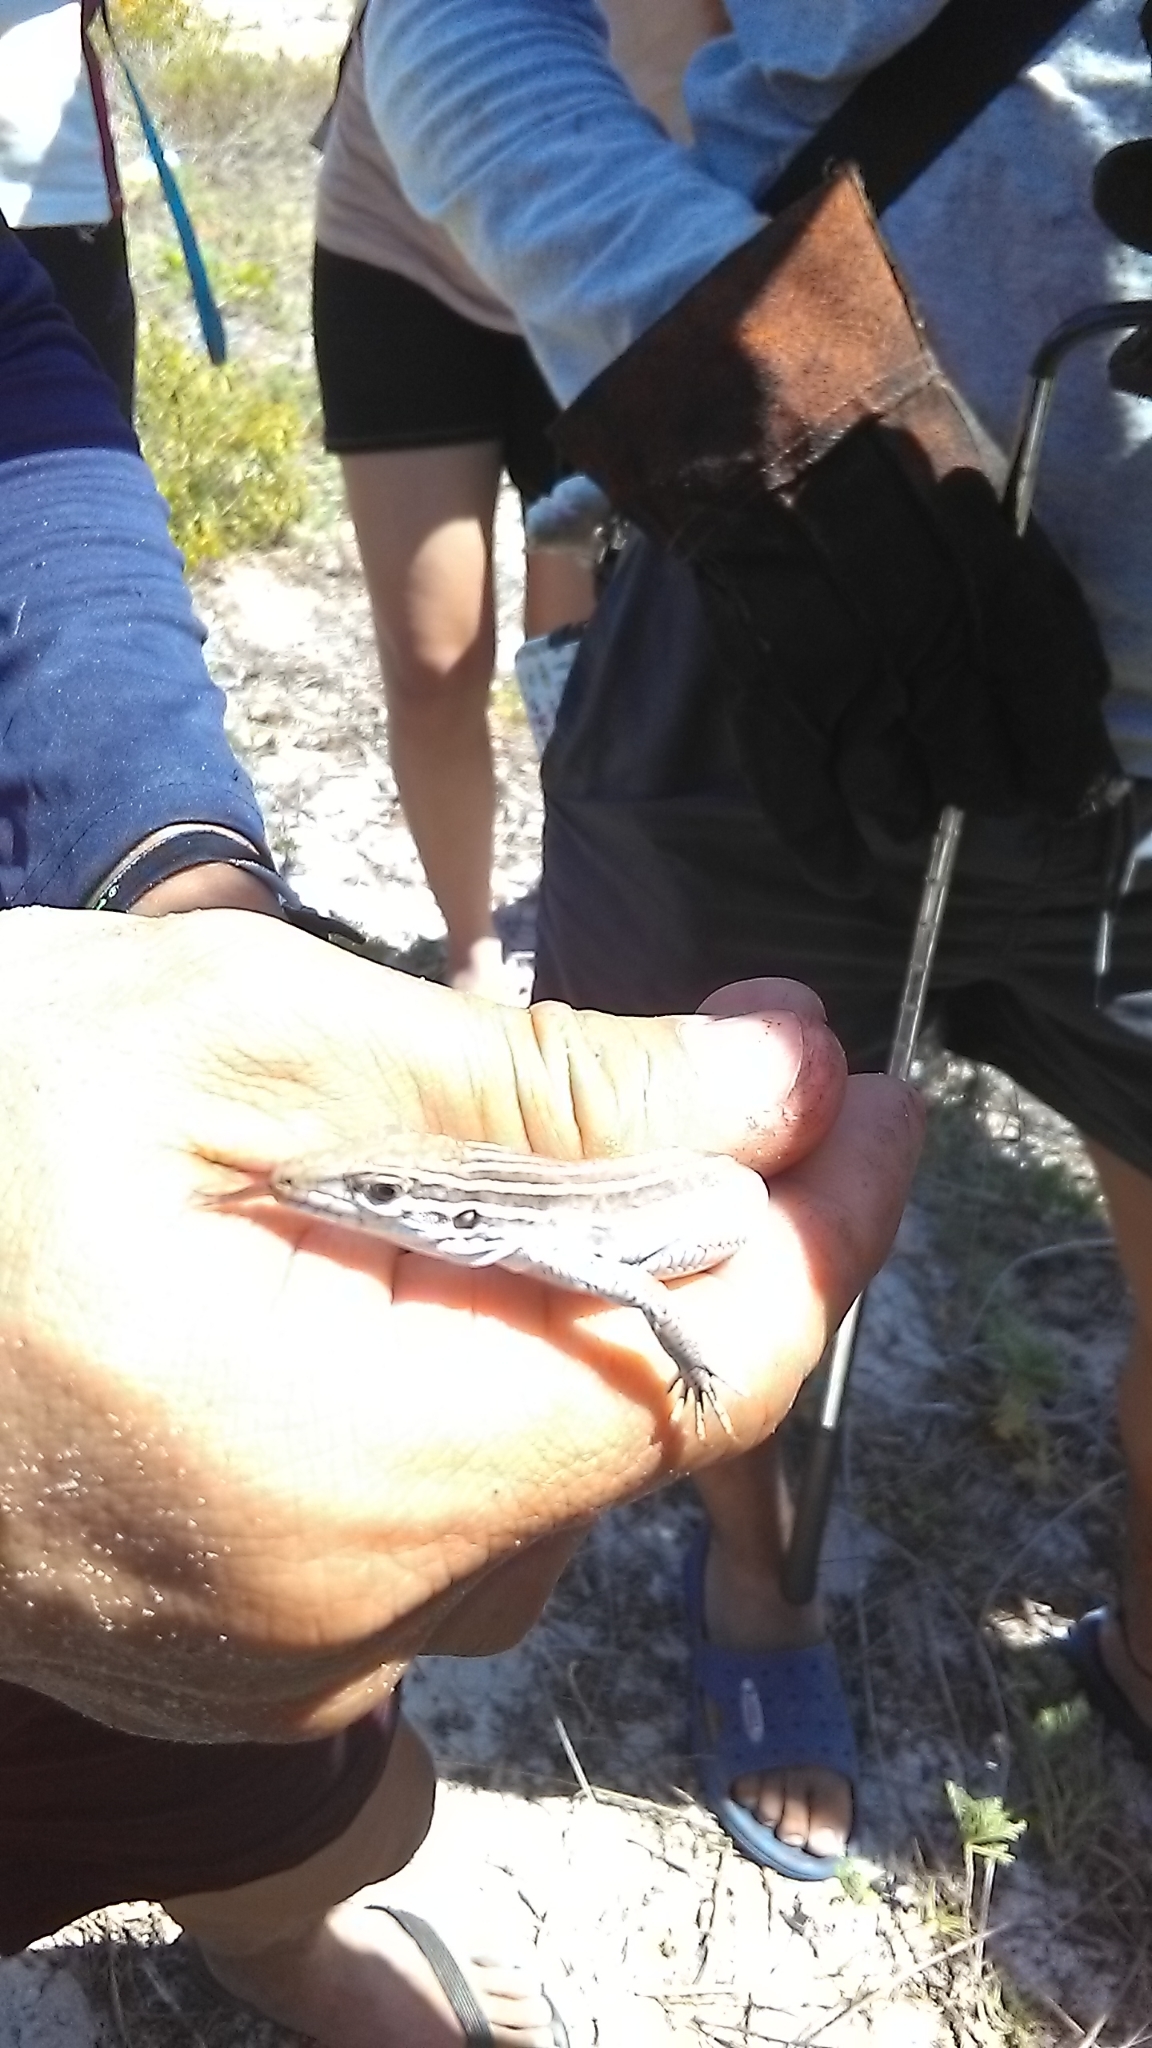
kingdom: Animalia
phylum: Chordata
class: Squamata
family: Teiidae
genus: Aspidoscelis
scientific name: Aspidoscelis angusticeps
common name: Yucatan whiptail
